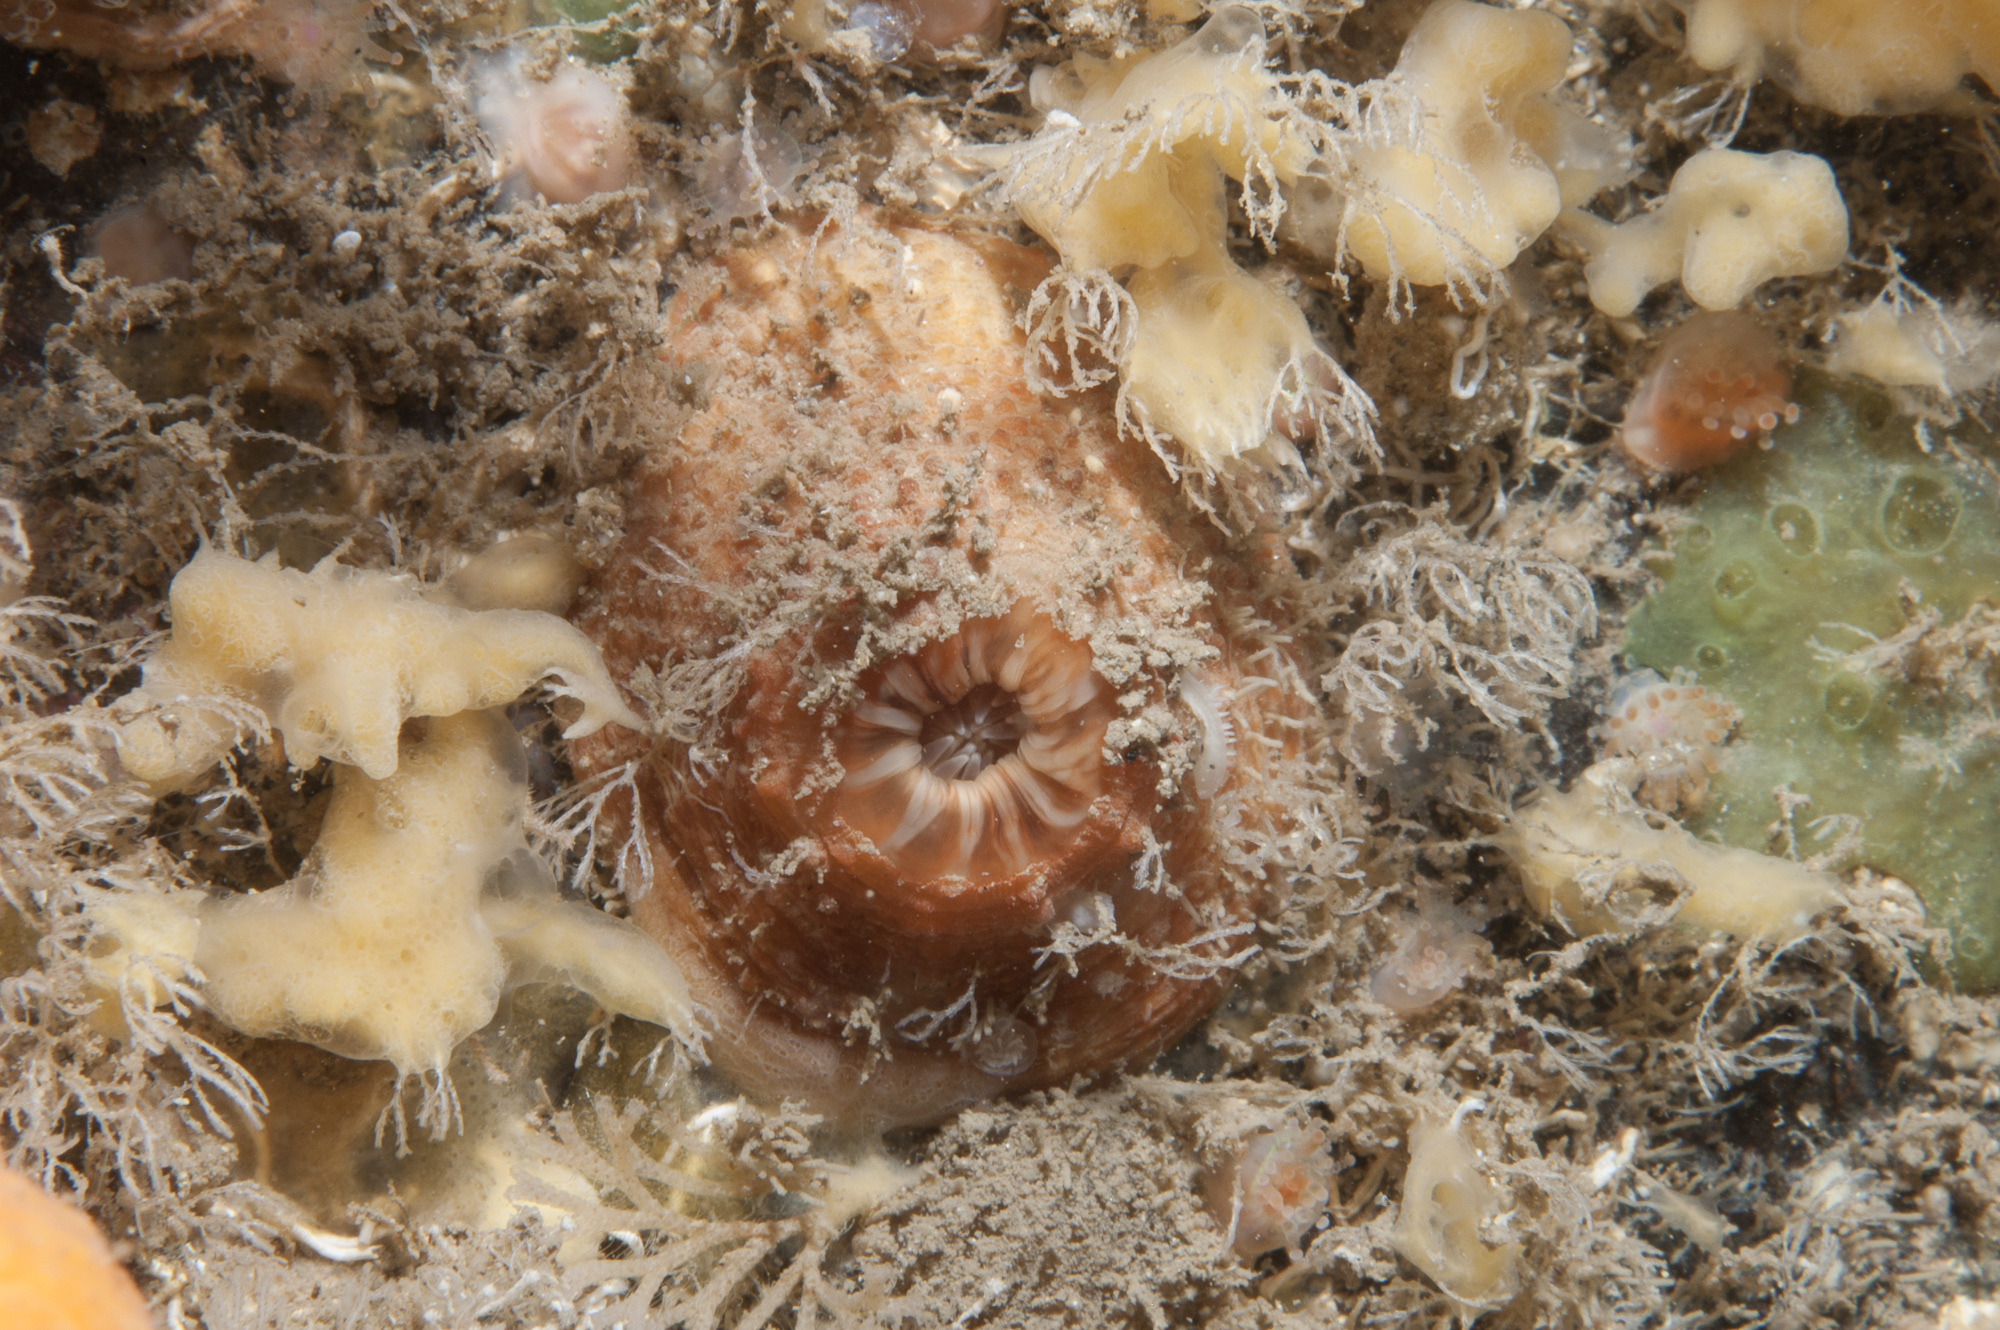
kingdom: Animalia
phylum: Cnidaria
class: Anthozoa
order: Actiniaria
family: Hormathiidae
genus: Hormathia
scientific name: Hormathia coronata
